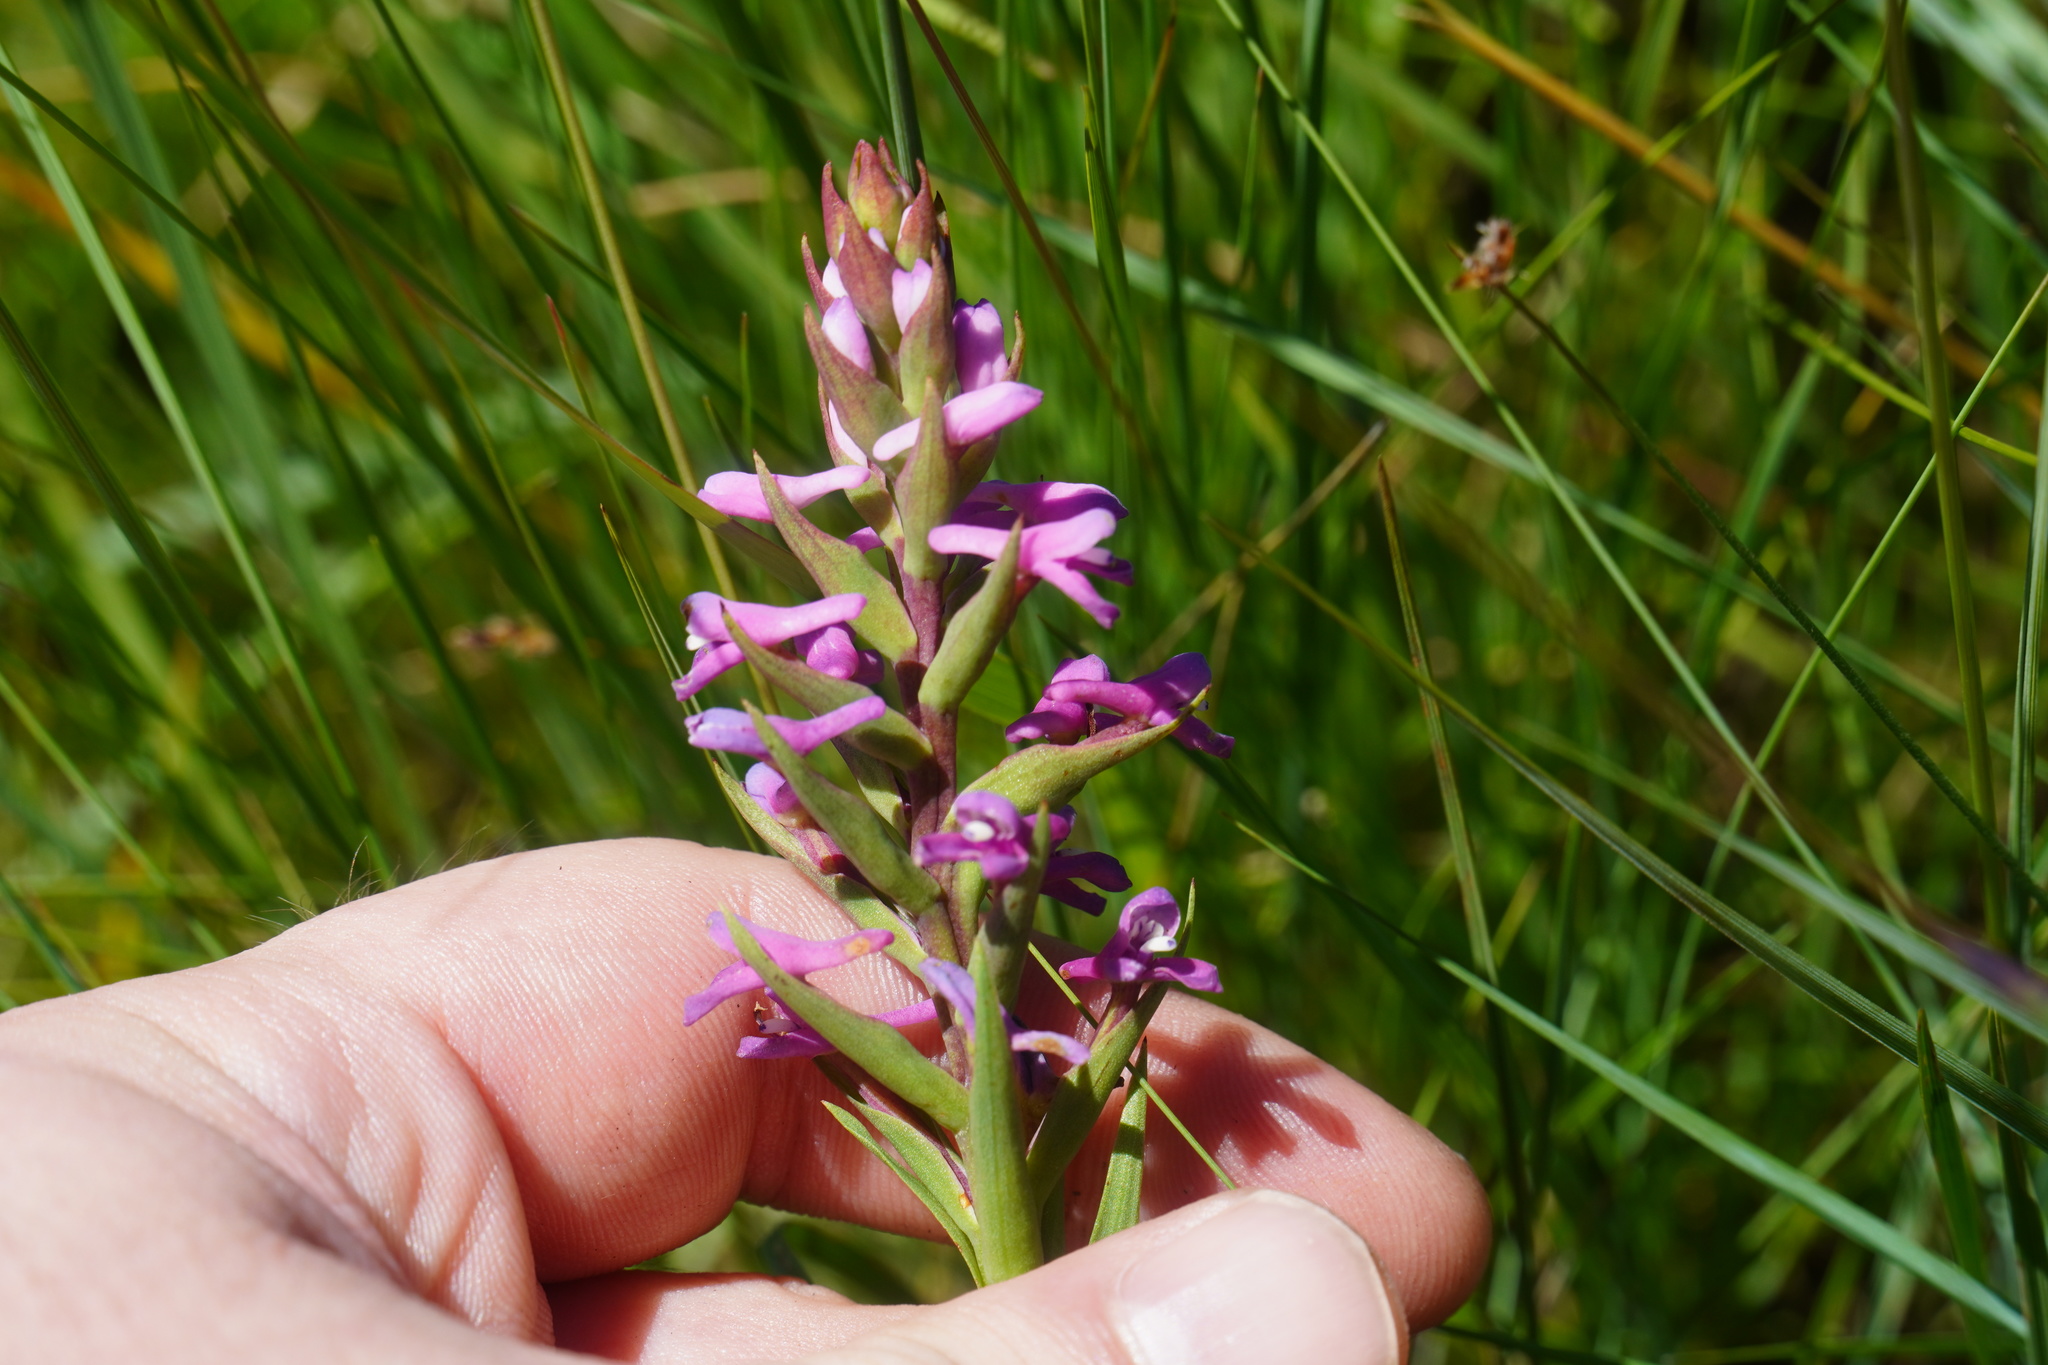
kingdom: Plantae
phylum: Tracheophyta
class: Liliopsida
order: Asparagales
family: Orchidaceae
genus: Disa
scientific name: Disa stachyoides
